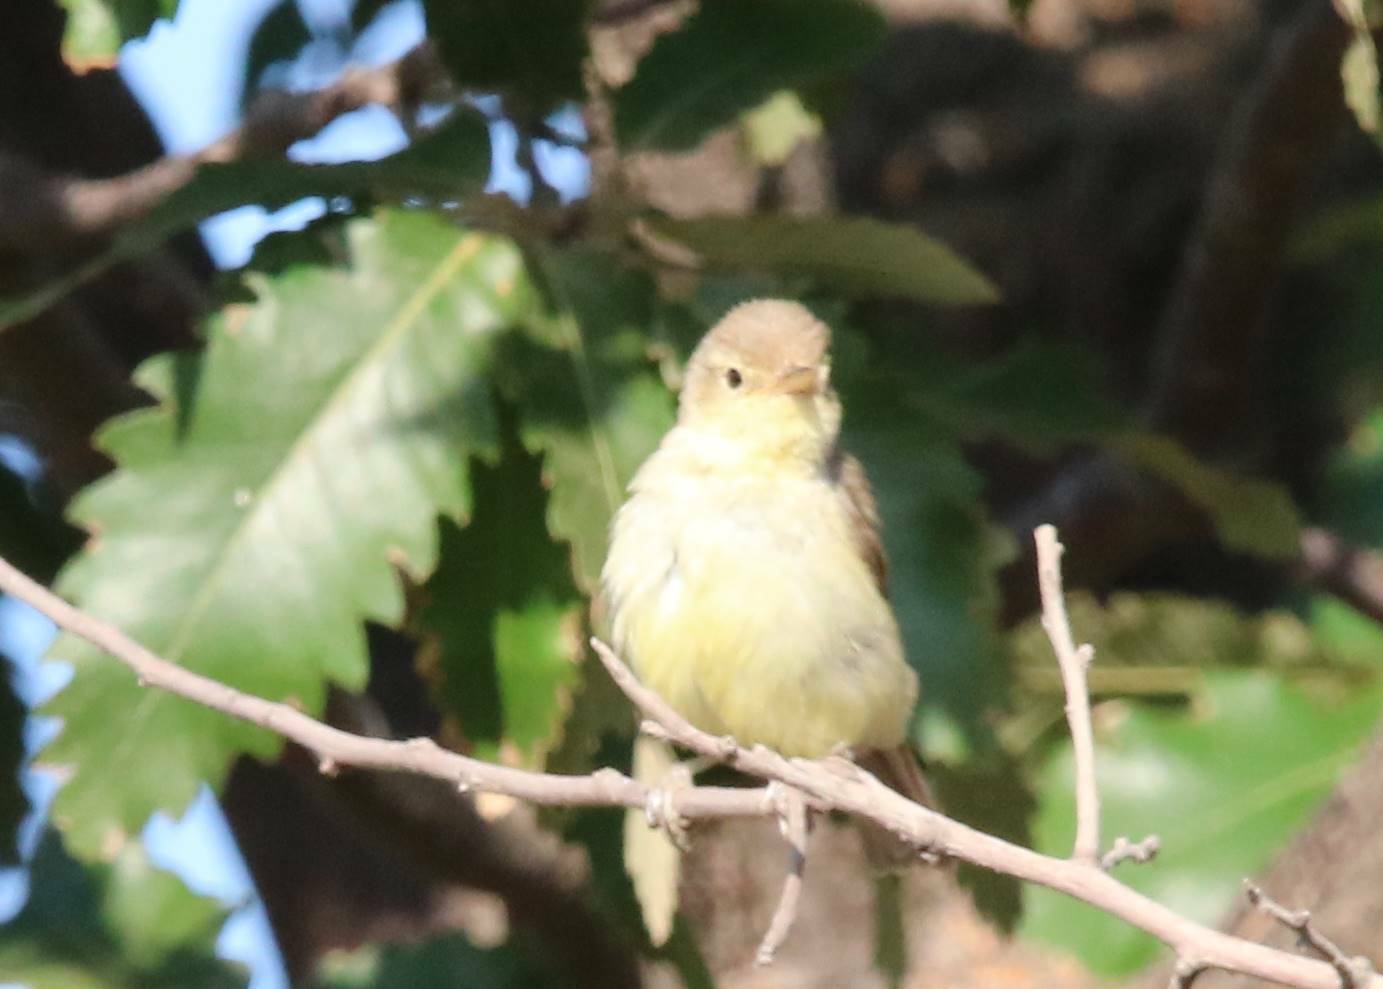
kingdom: Animalia
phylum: Chordata
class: Aves
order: Passeriformes
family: Acrocephalidae
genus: Hippolais
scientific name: Hippolais polyglotta
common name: Melodious warbler
